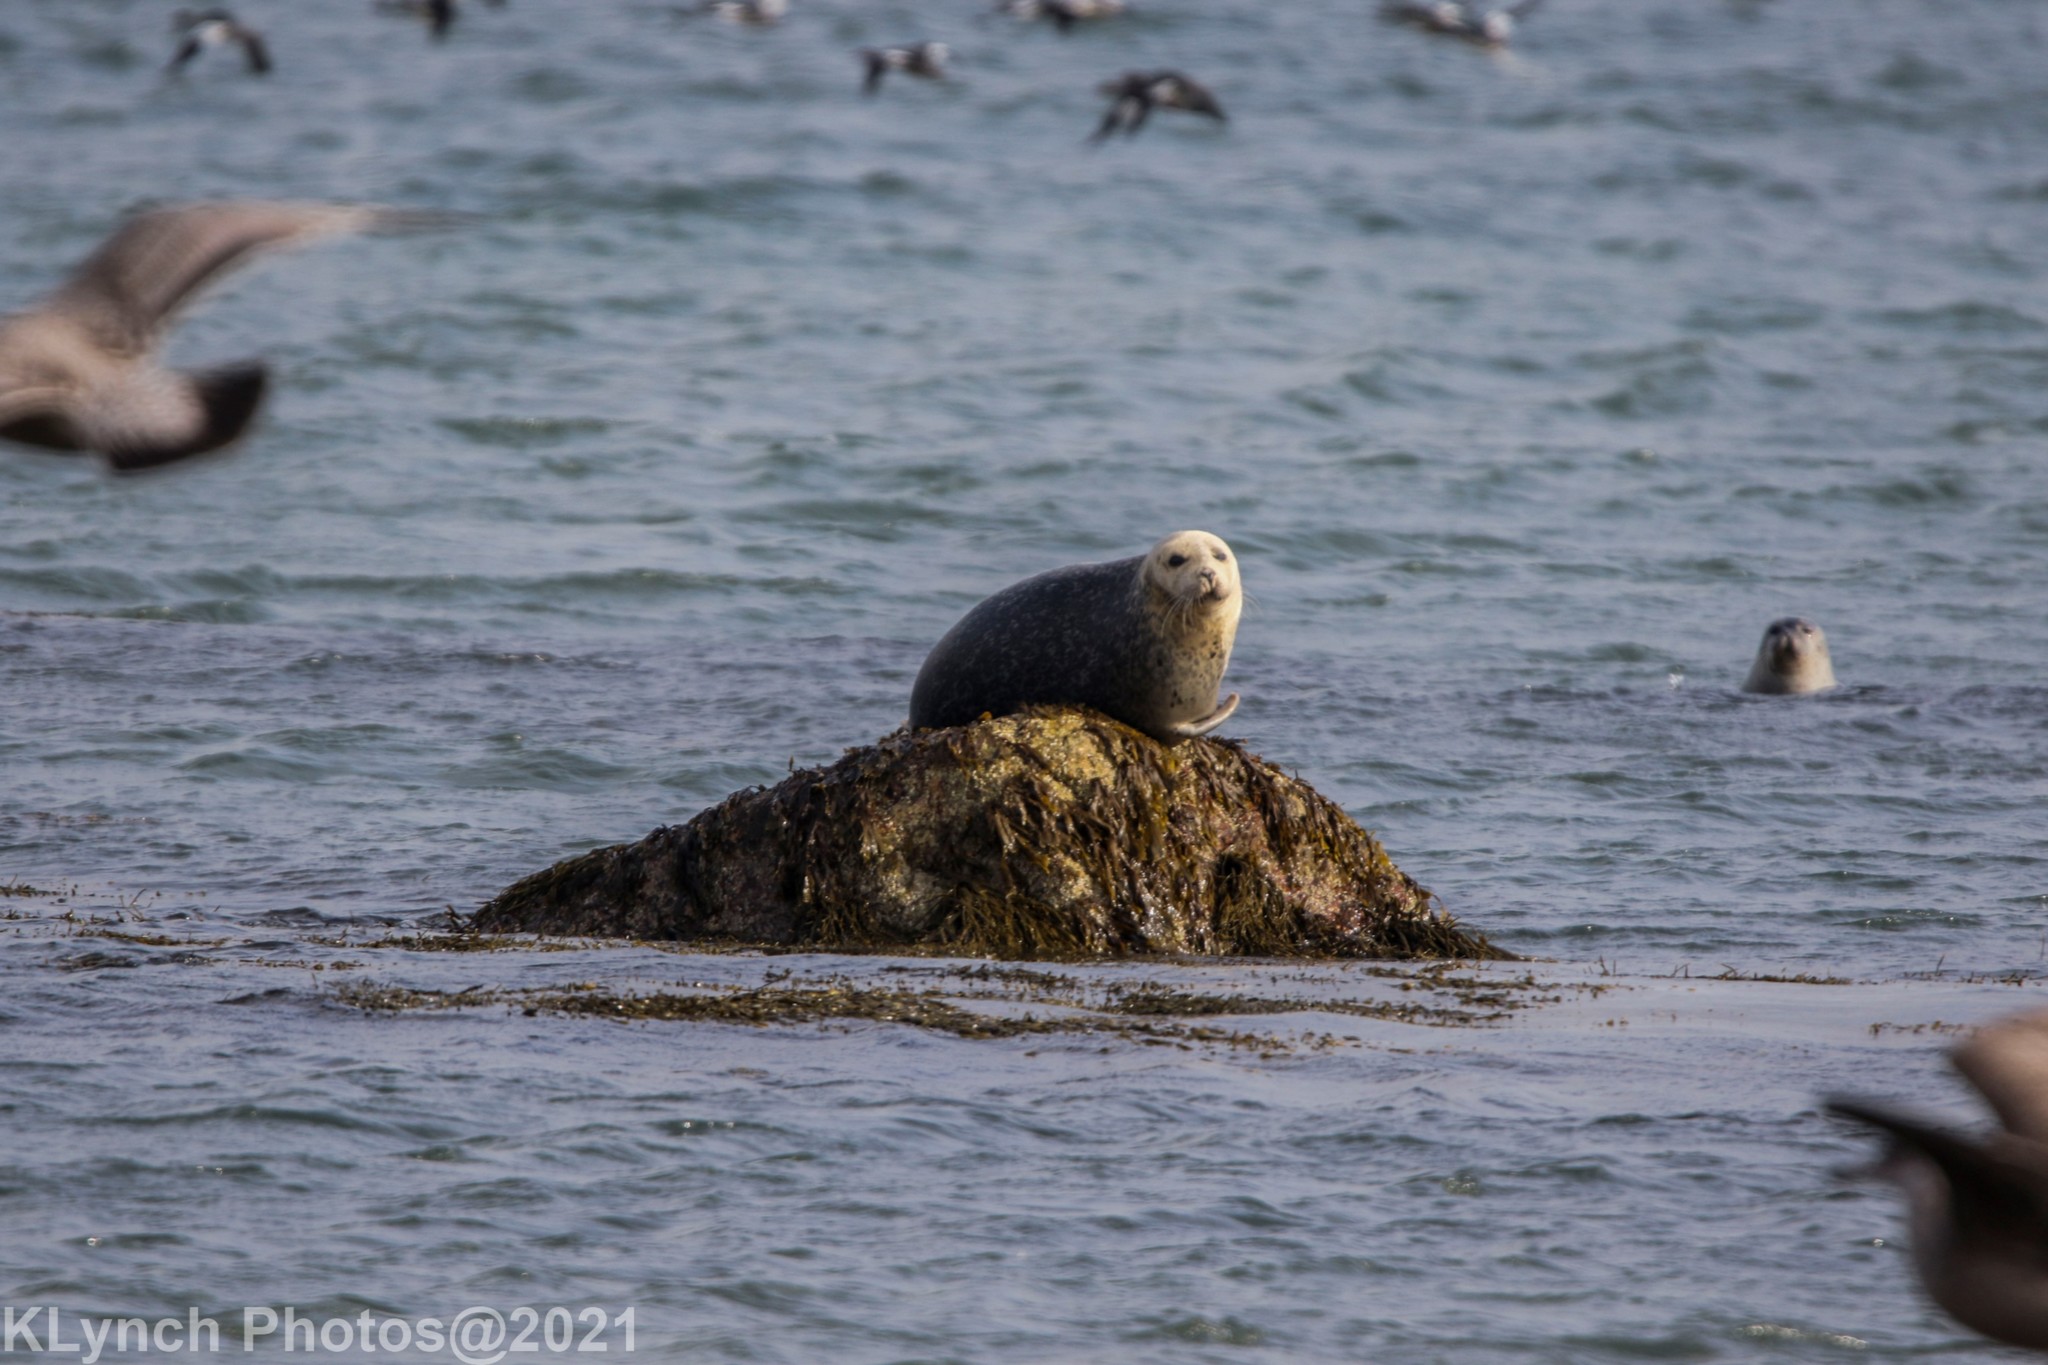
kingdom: Animalia
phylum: Chordata
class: Mammalia
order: Carnivora
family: Phocidae
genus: Phoca
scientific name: Phoca vitulina
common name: Harbor seal
